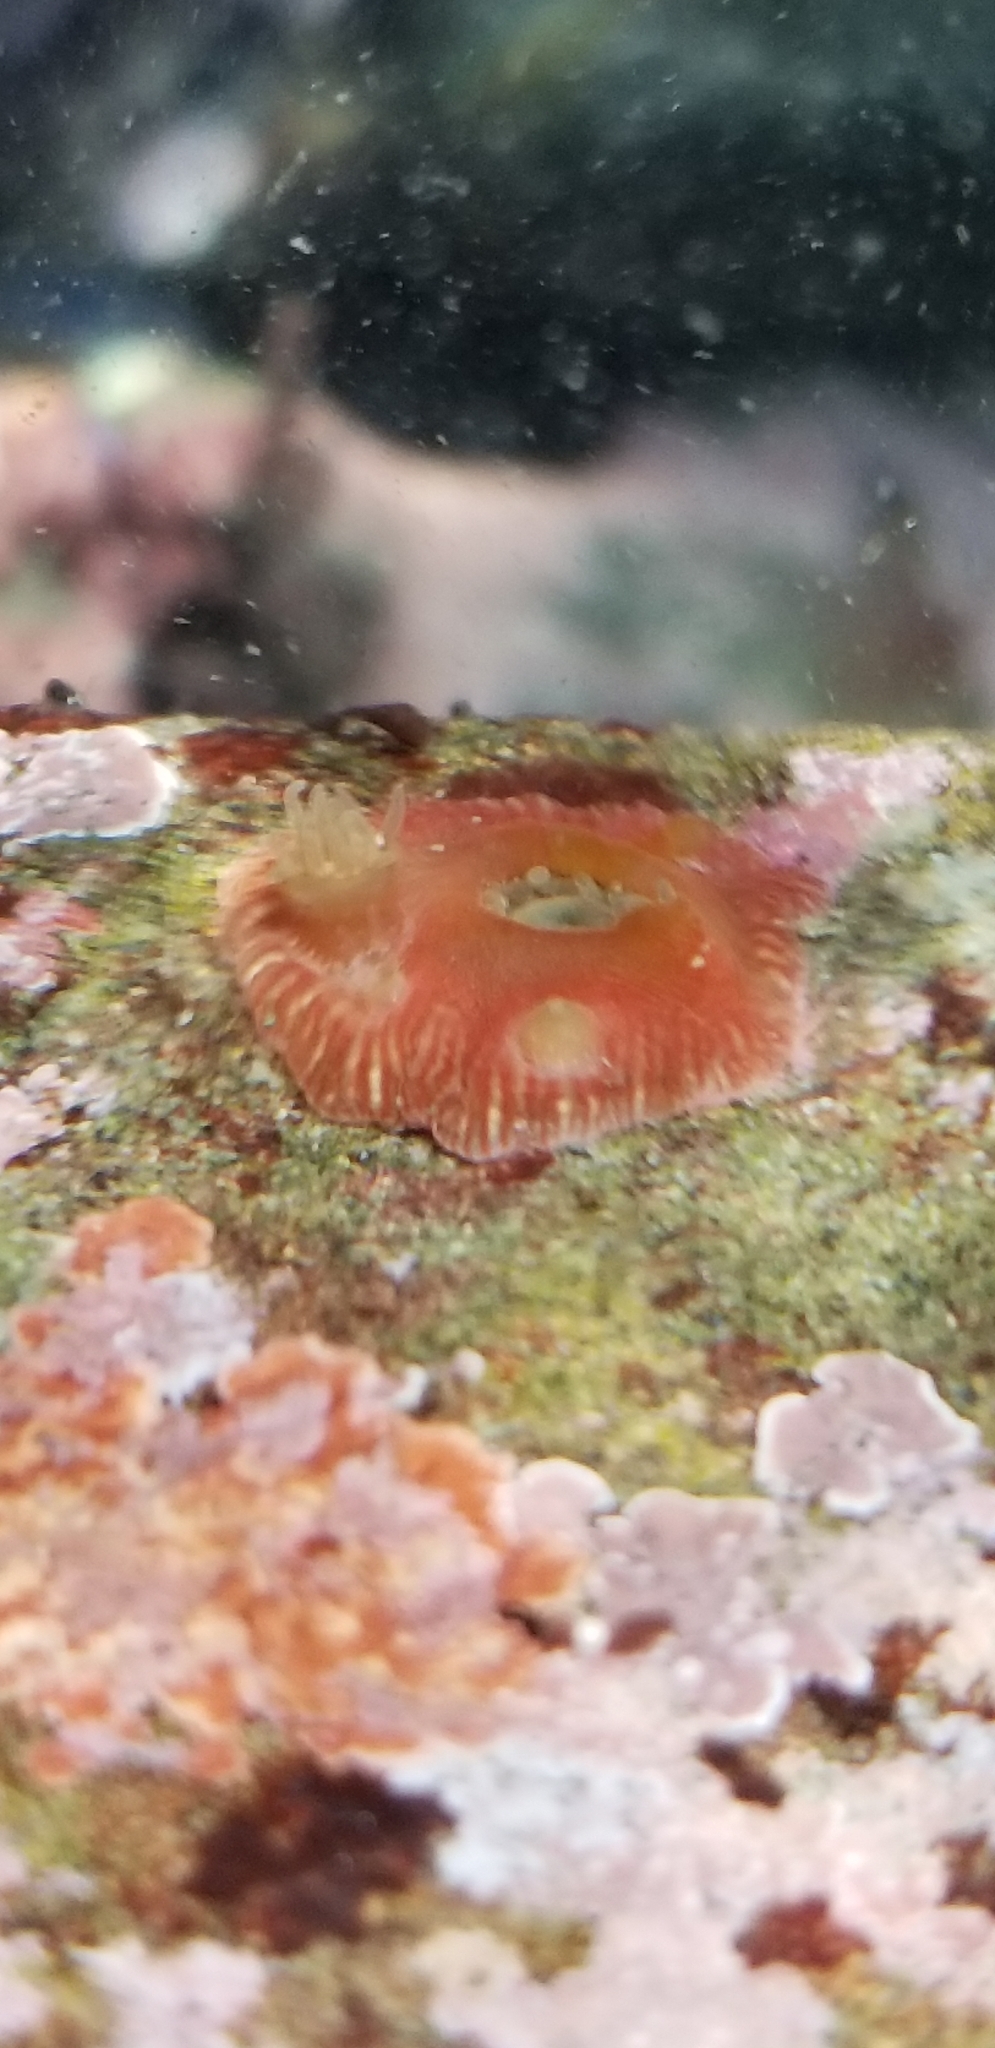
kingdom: Animalia
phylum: Cnidaria
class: Anthozoa
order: Actiniaria
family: Actiniidae
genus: Epiactis
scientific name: Epiactis prolifera
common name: Brooding anemone
